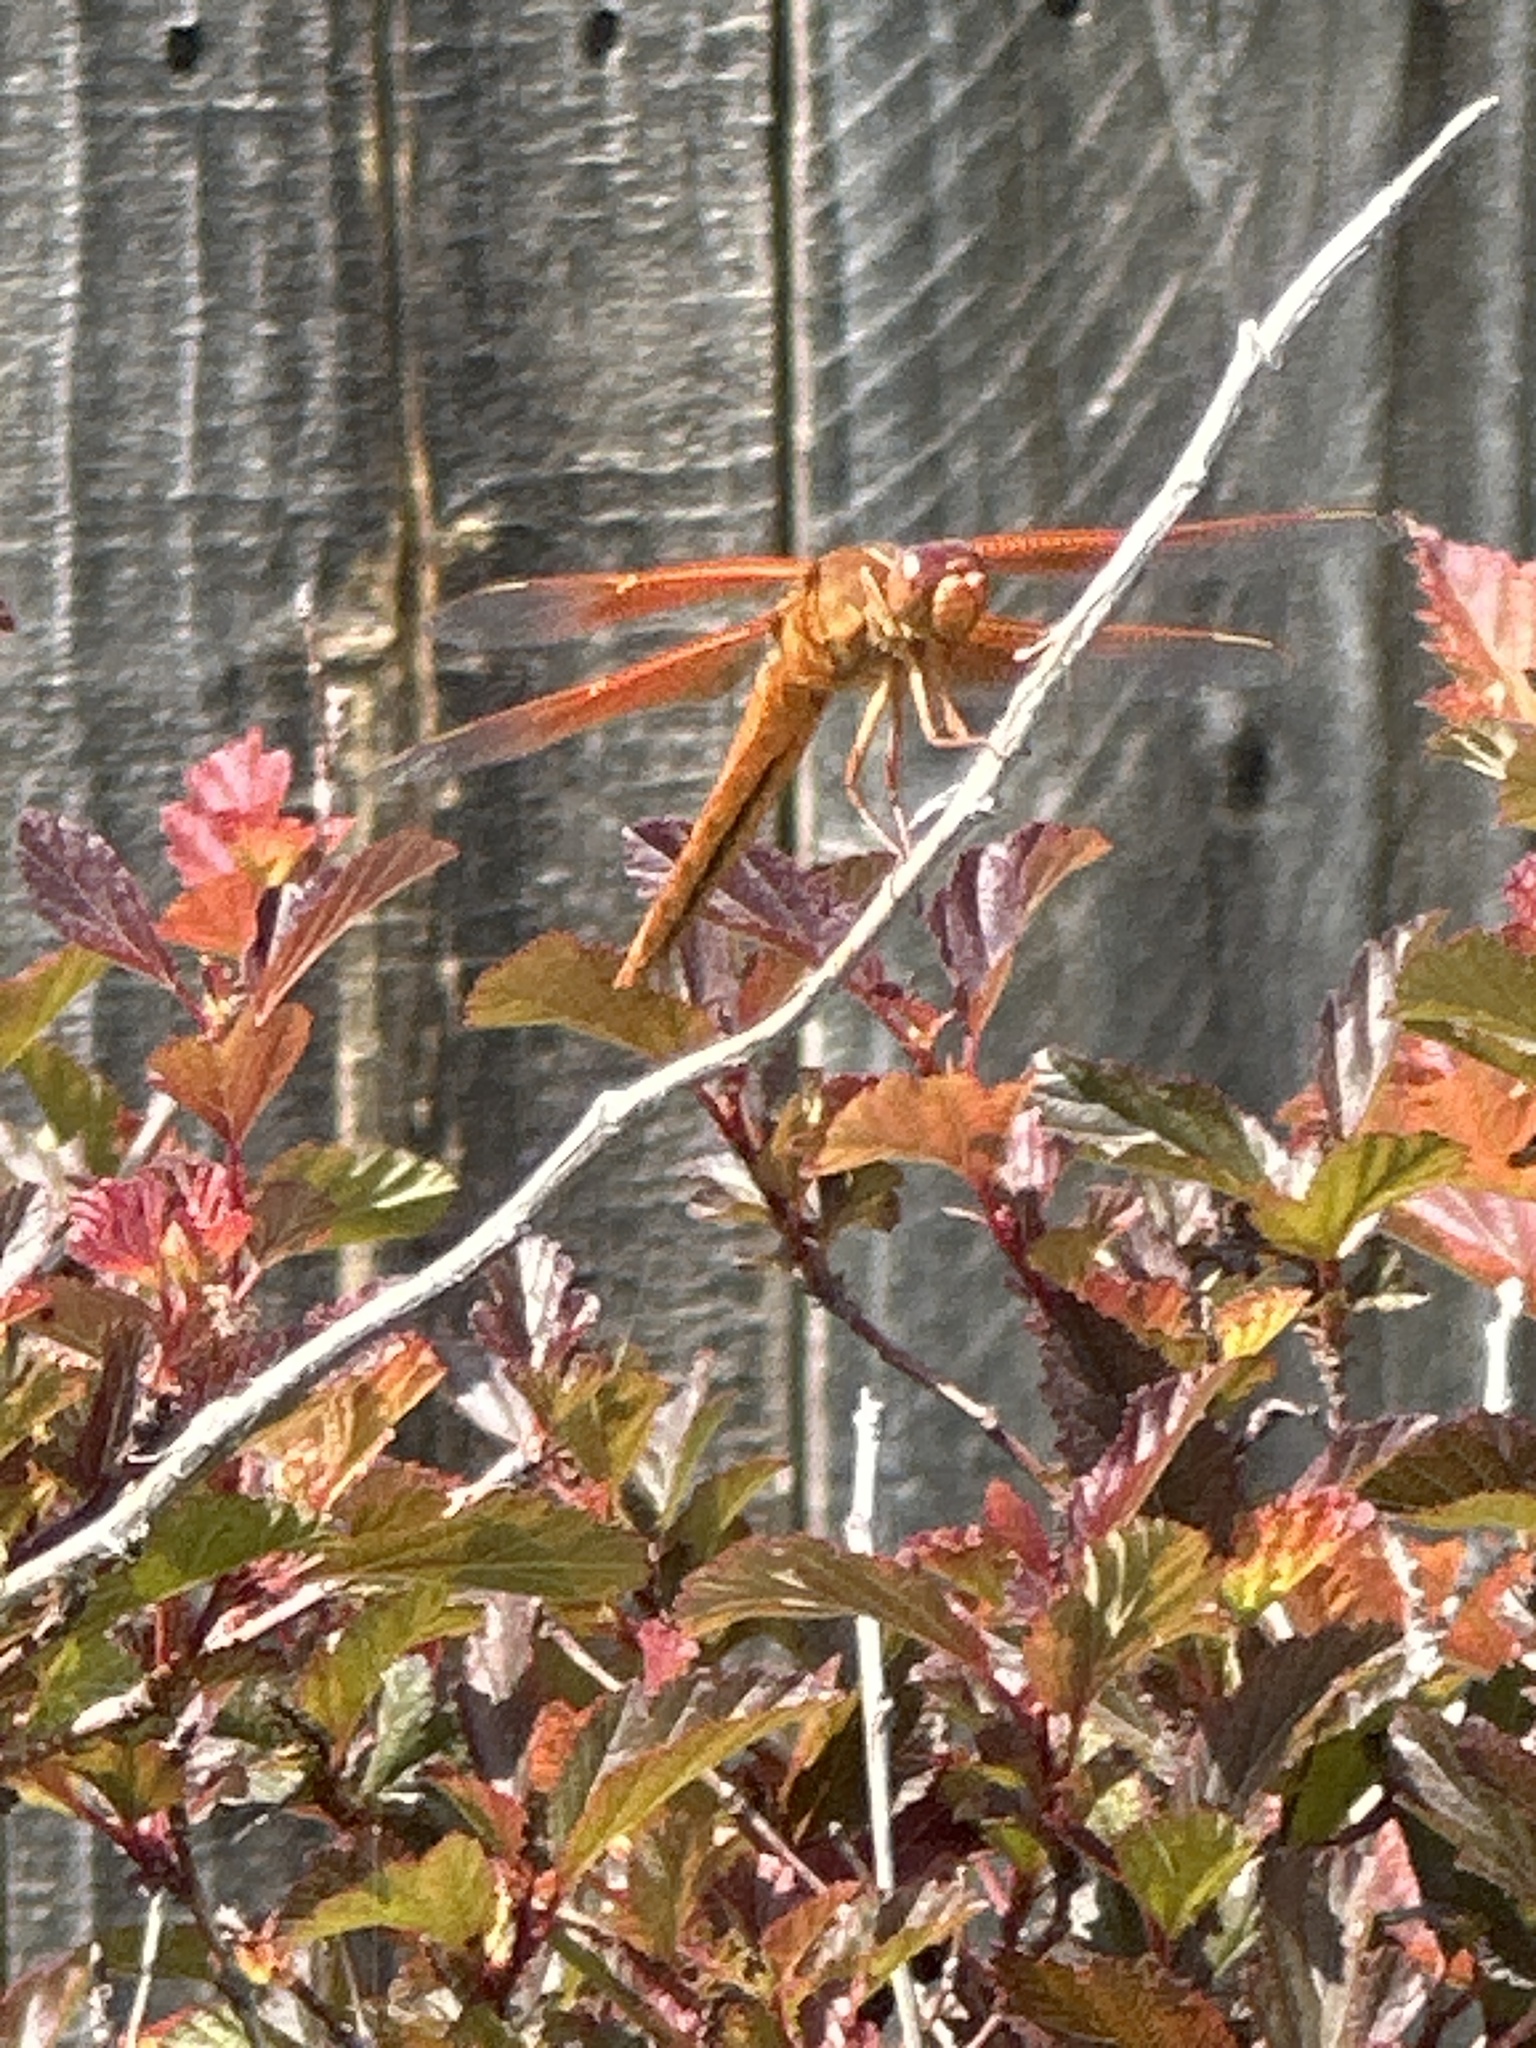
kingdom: Animalia
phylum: Arthropoda
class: Insecta
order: Odonata
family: Libellulidae
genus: Libellula
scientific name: Libellula saturata
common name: Flame skimmer
